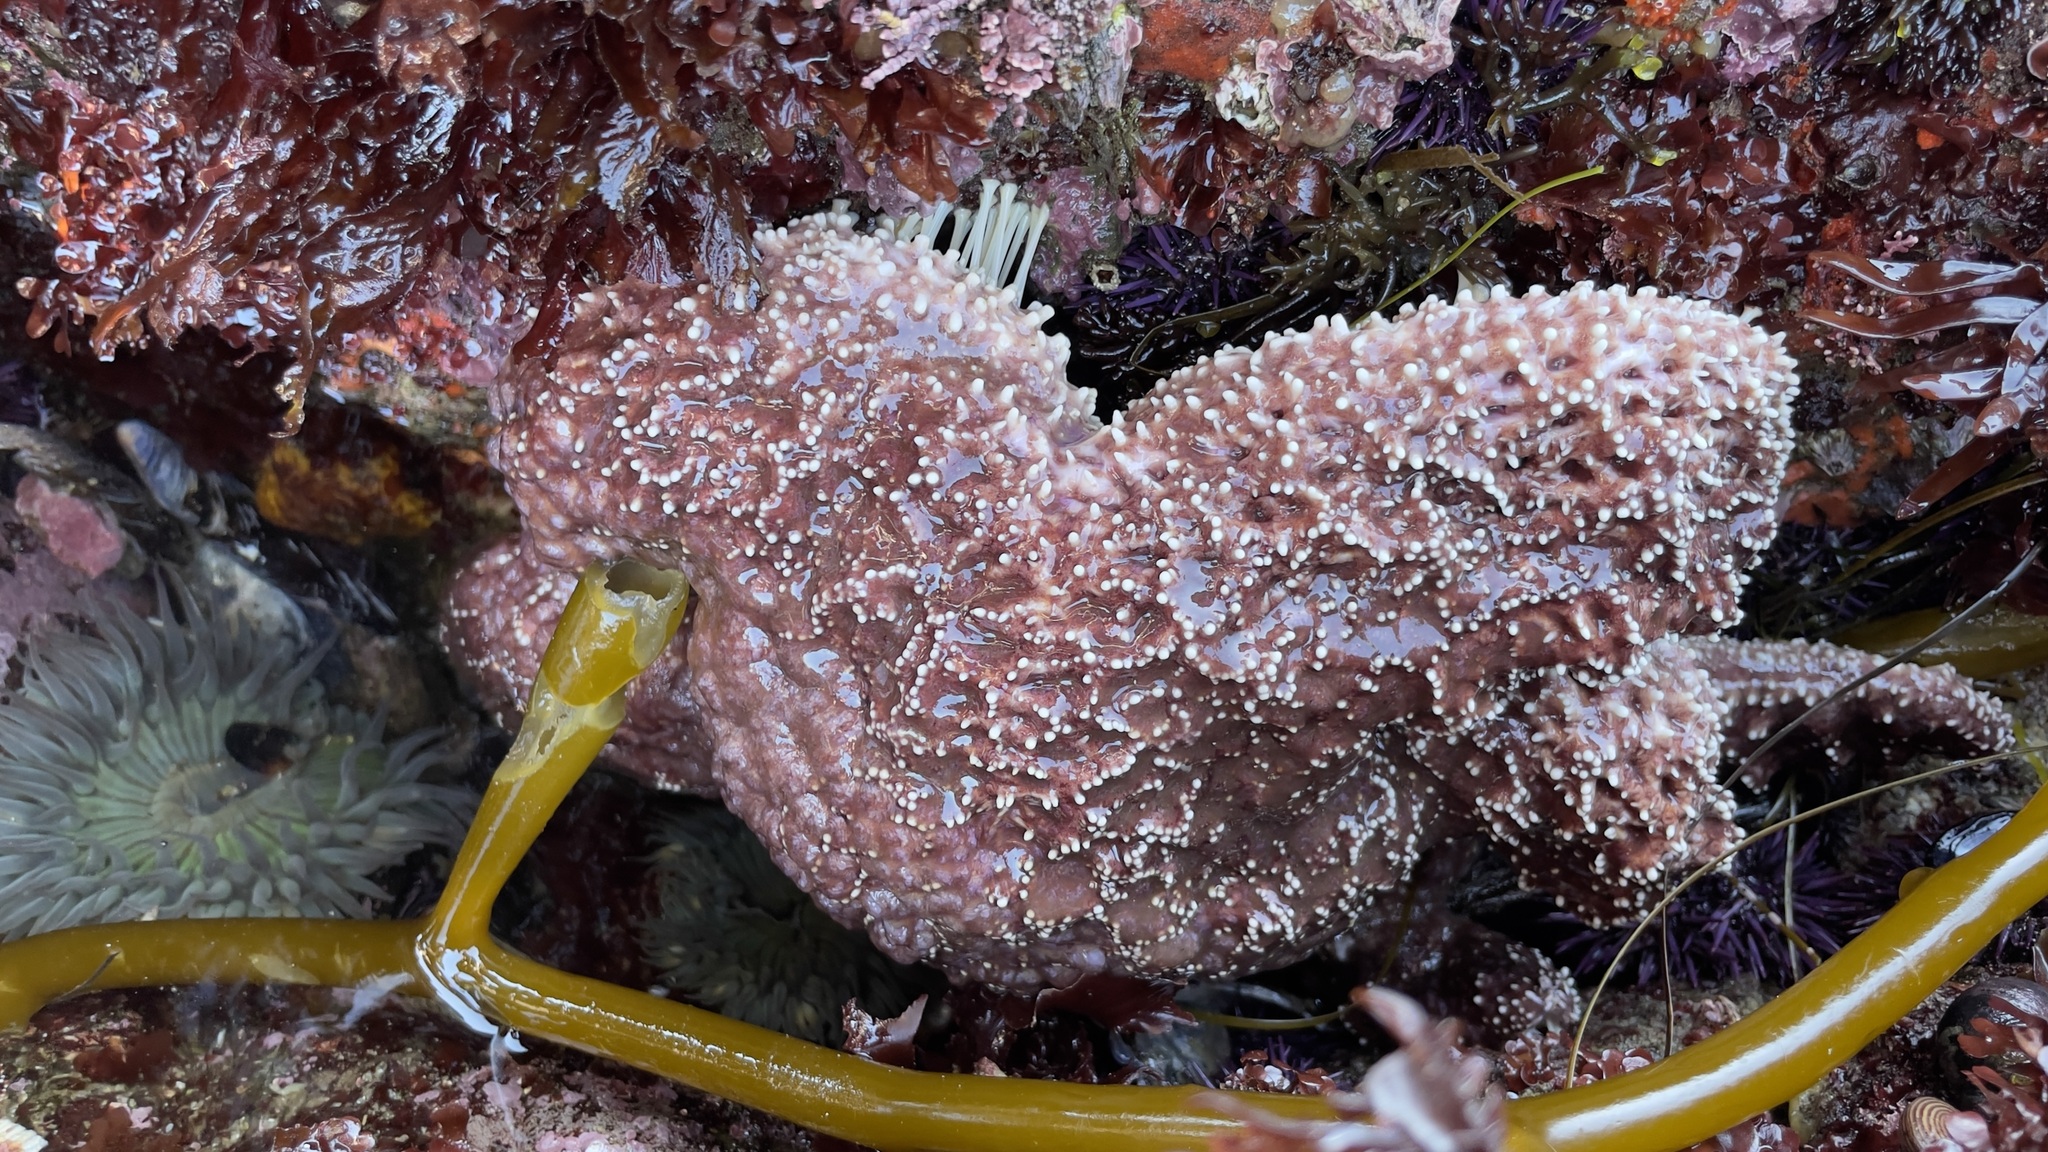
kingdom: Animalia
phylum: Echinodermata
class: Asteroidea
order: Forcipulatida
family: Asteriidae
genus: Pisaster
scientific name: Pisaster ochraceus
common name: Ochre stars
